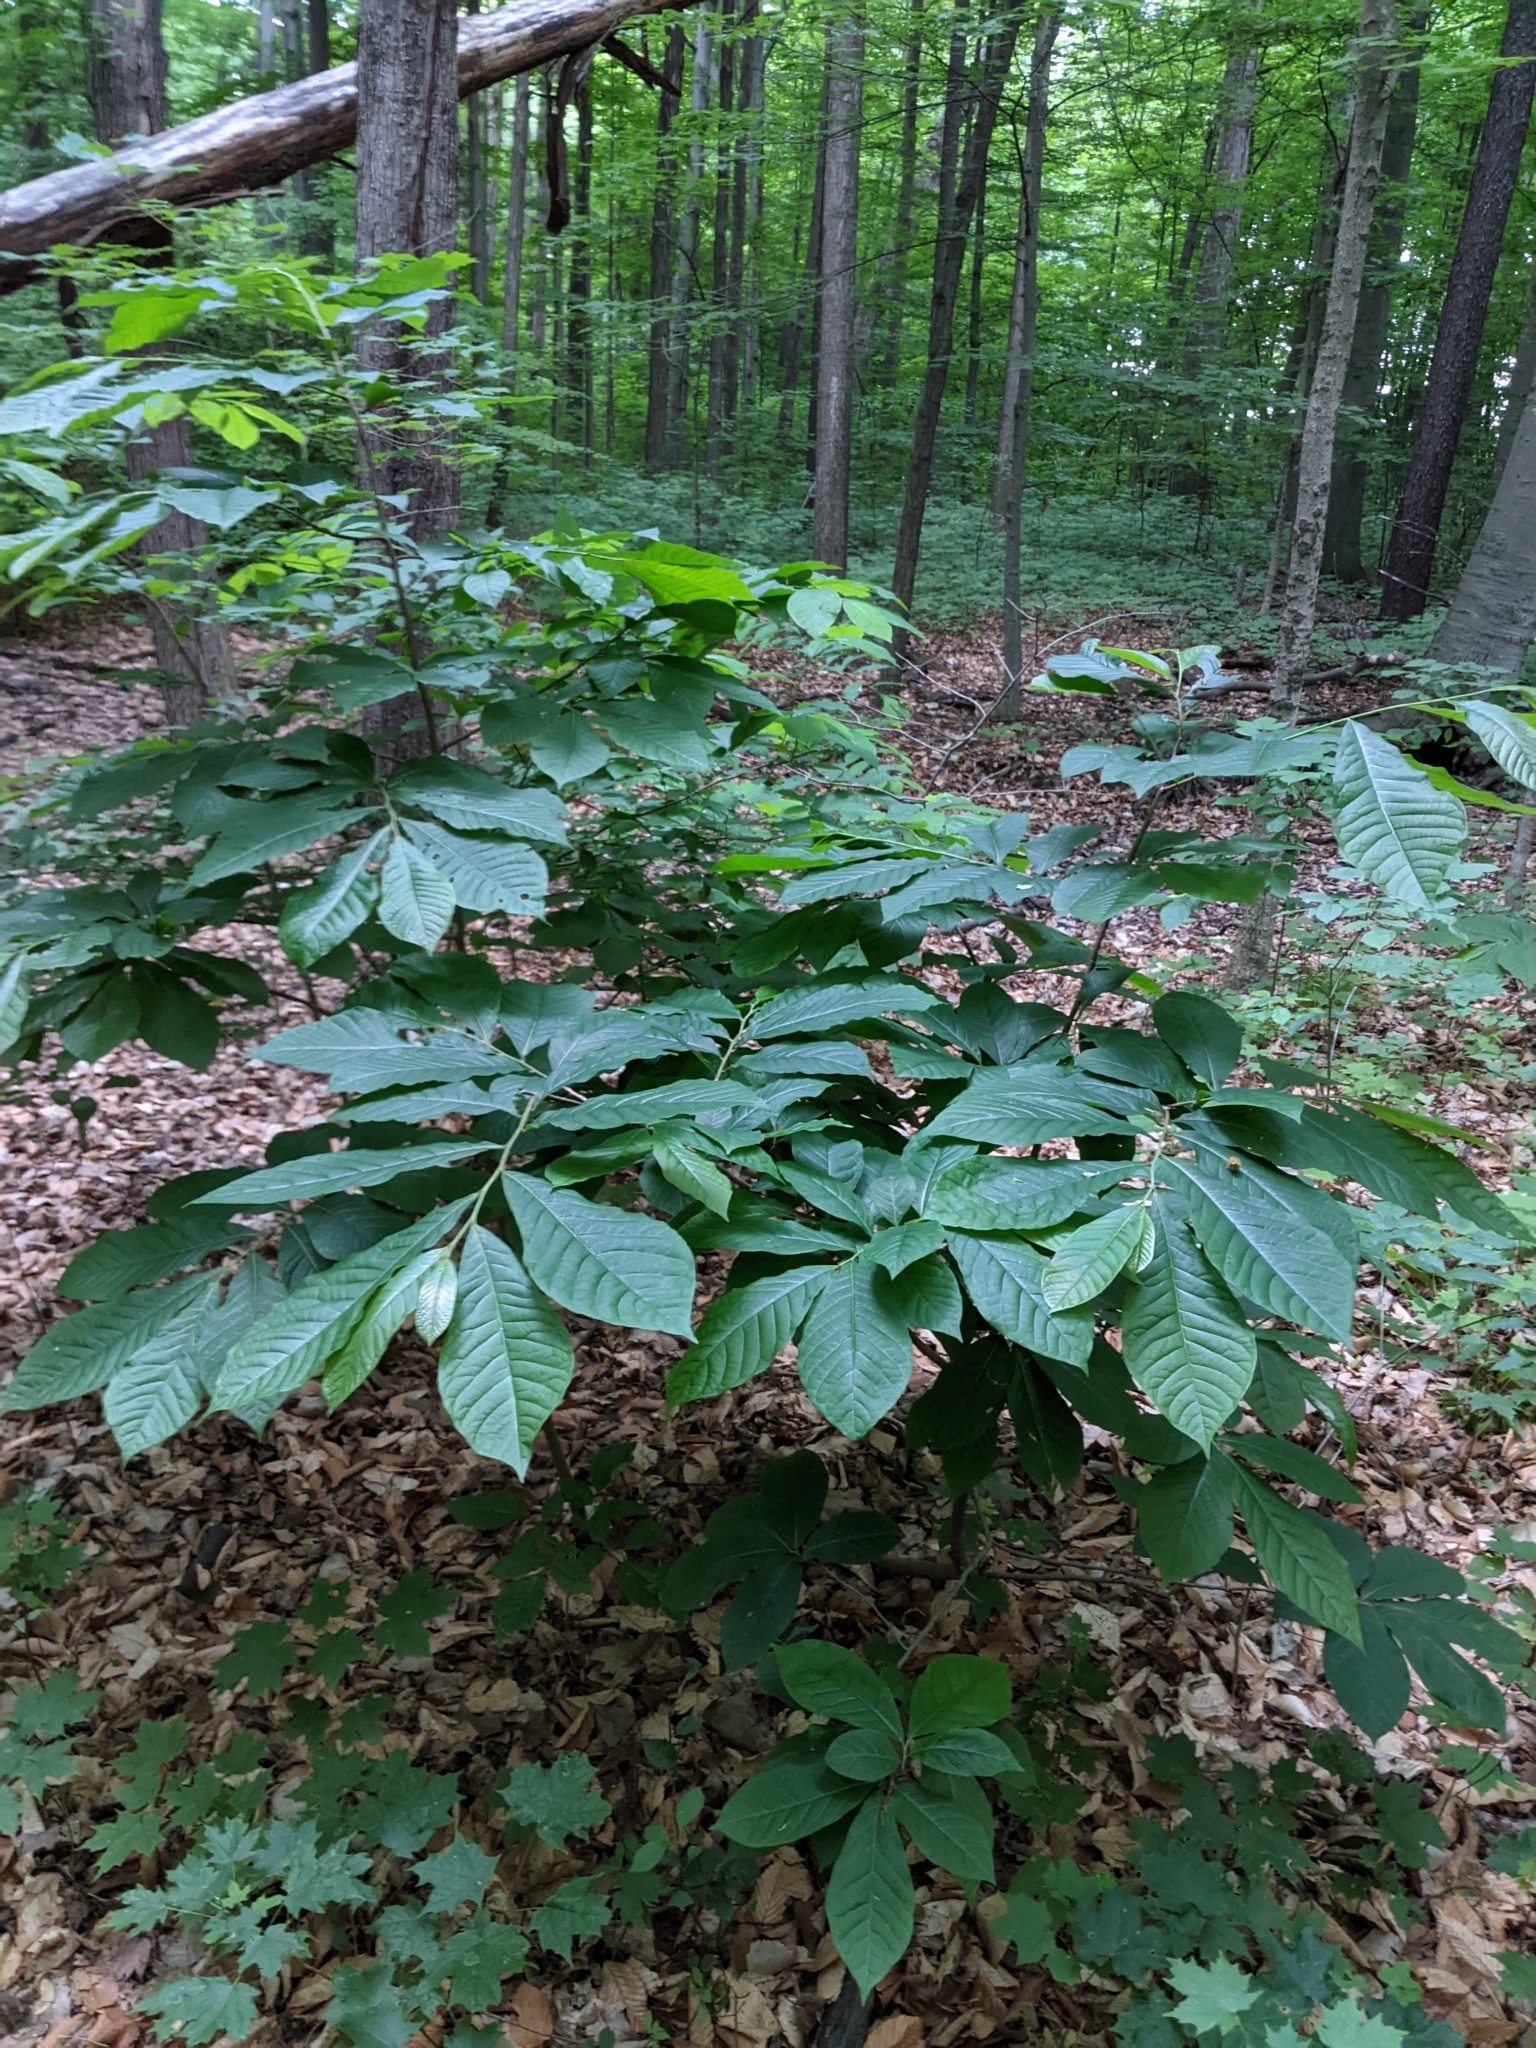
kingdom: Plantae
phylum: Tracheophyta
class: Magnoliopsida
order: Magnoliales
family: Annonaceae
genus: Asimina
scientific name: Asimina triloba
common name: Dog-banana
